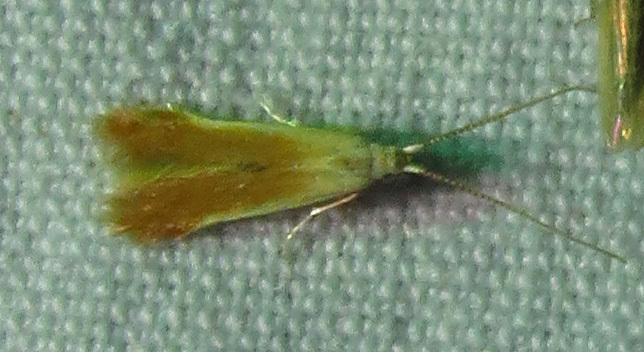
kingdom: Animalia
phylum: Arthropoda
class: Insecta
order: Lepidoptera
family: Coleophoridae
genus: Coleophora
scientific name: Coleophora laticornella
